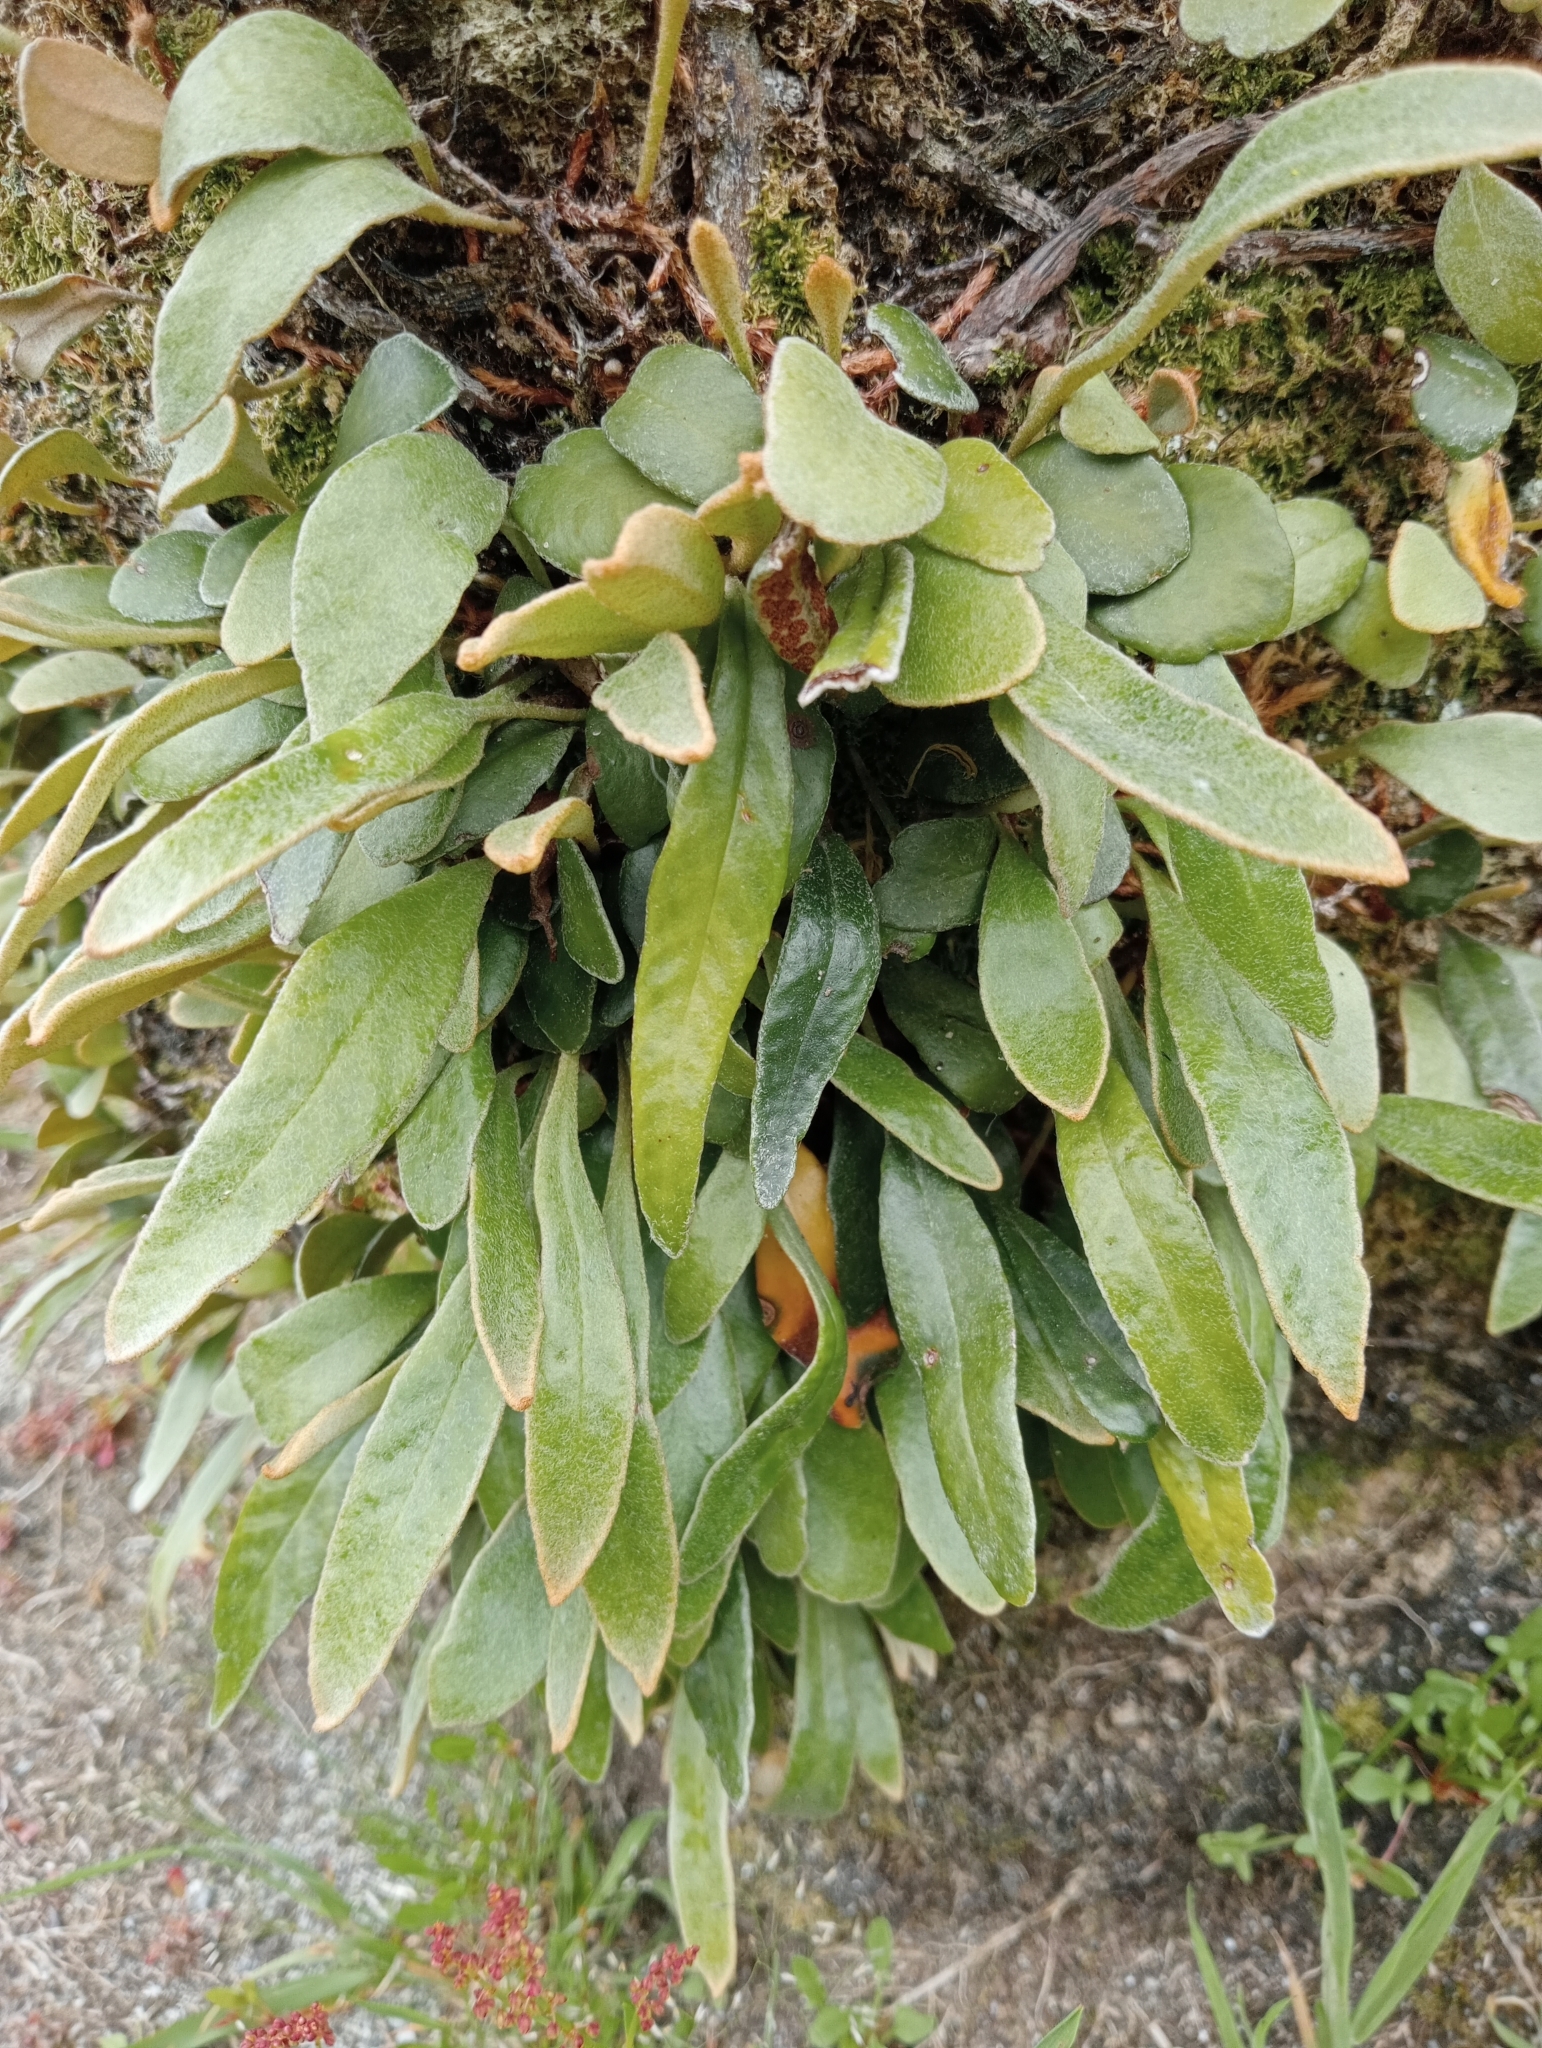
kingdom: Plantae
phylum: Tracheophyta
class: Polypodiopsida
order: Polypodiales
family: Polypodiaceae
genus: Pyrrosia
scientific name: Pyrrosia eleagnifolia
